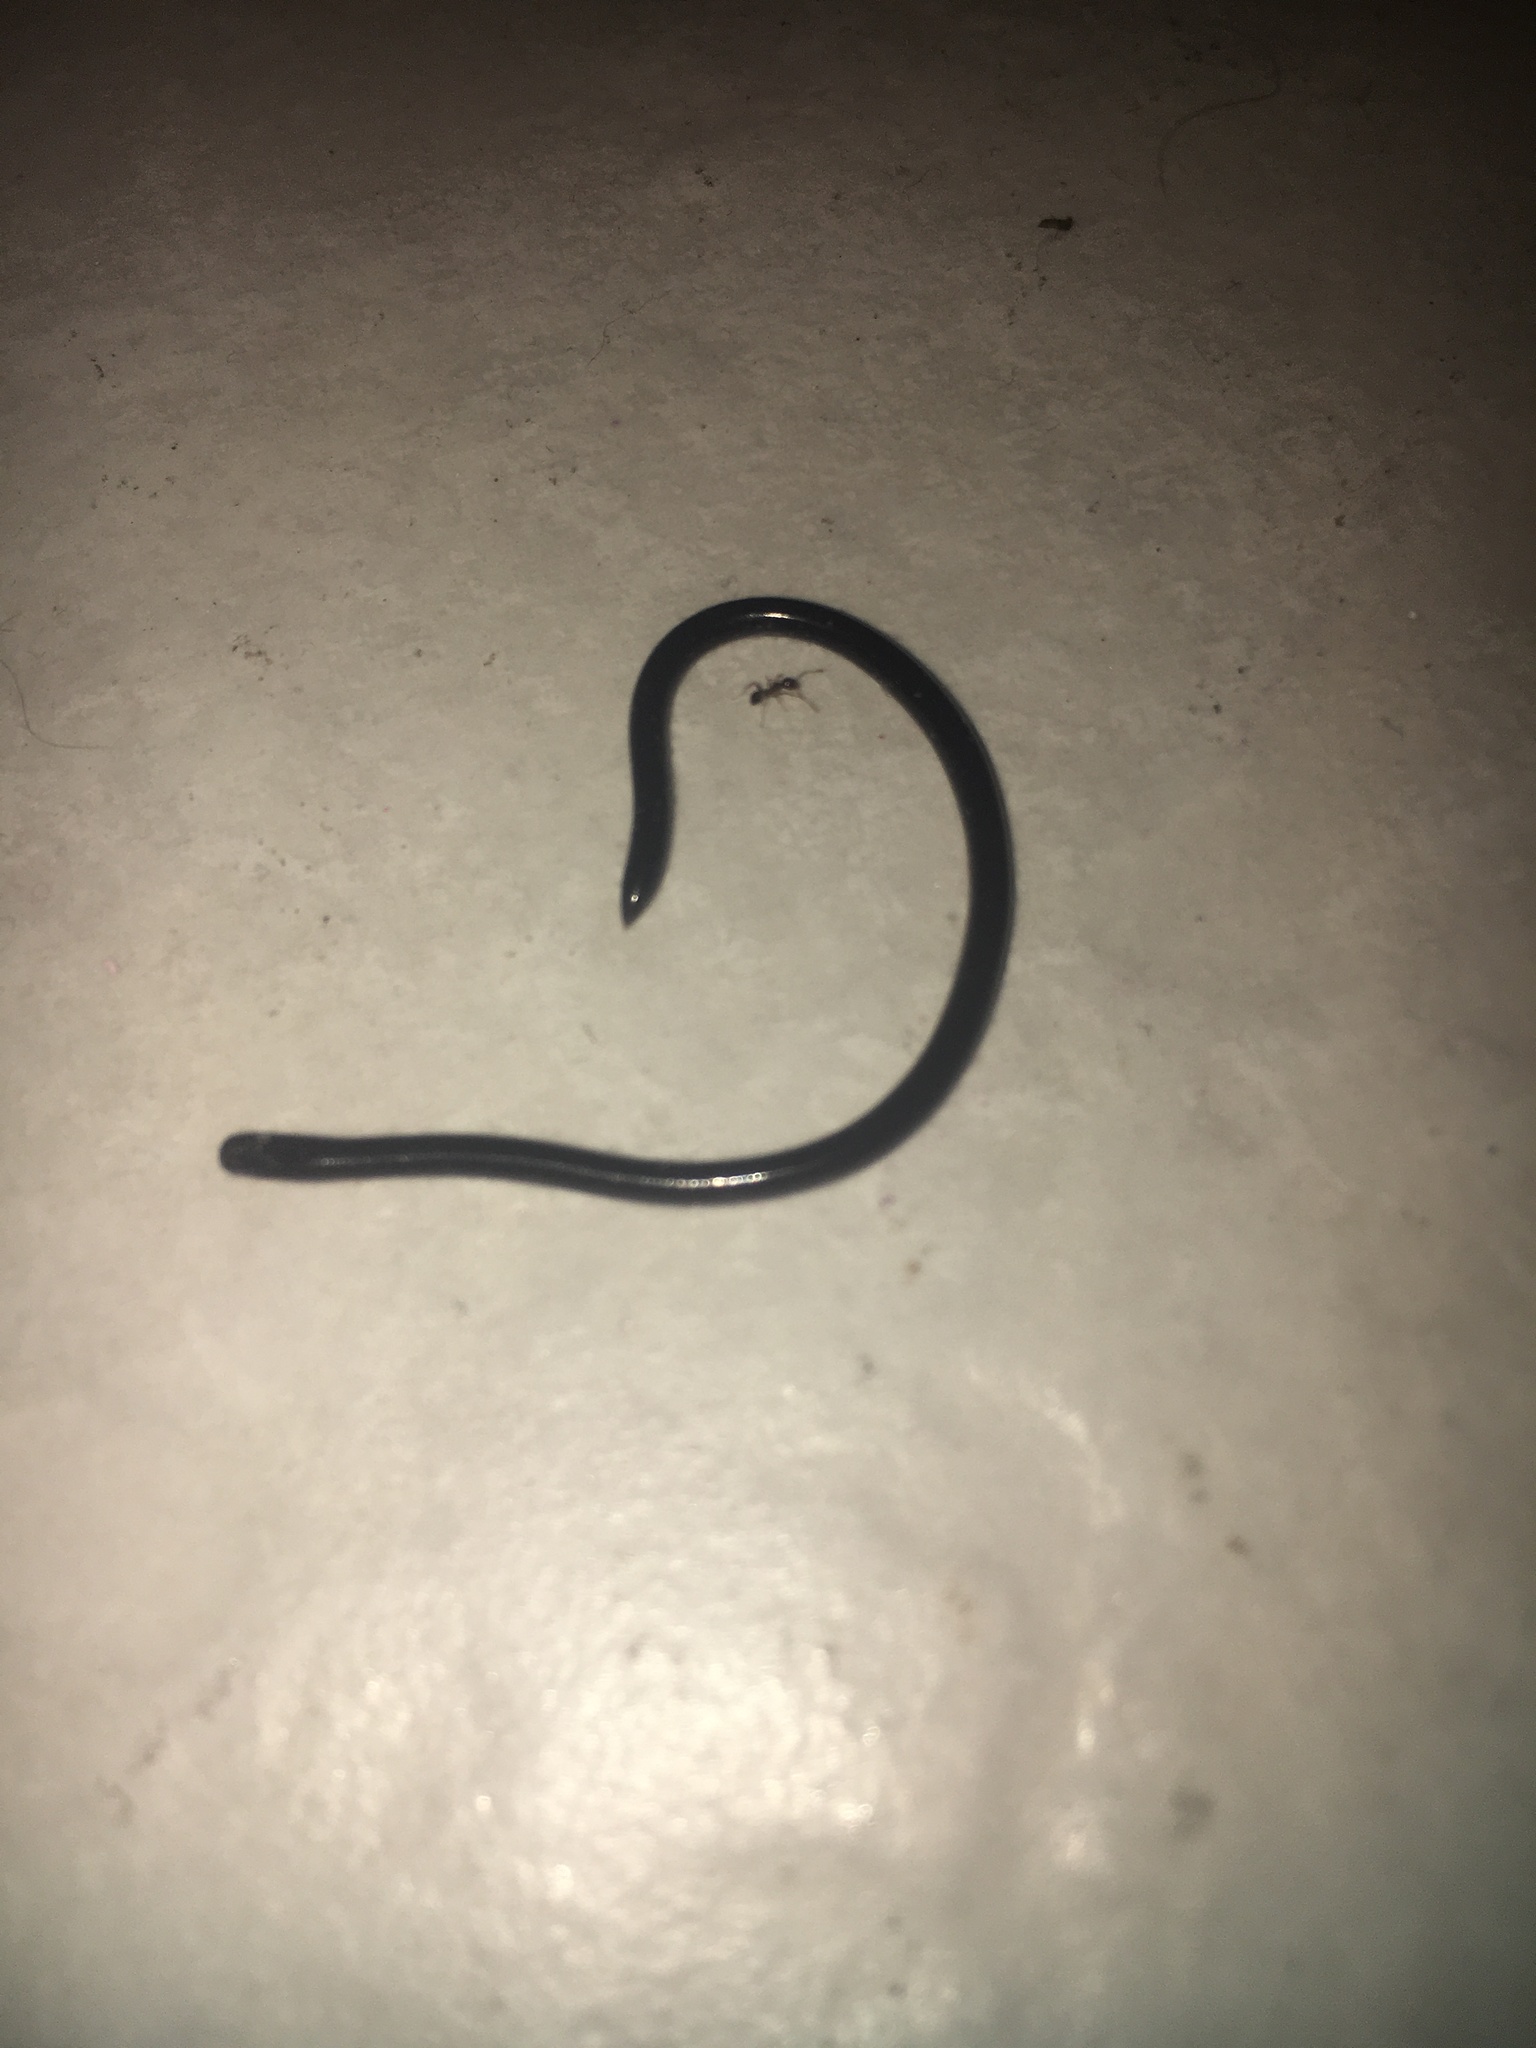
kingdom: Animalia
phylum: Chordata
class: Squamata
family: Typhlopidae
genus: Indotyphlops
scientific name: Indotyphlops braminus
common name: Brahminy blindsnake
